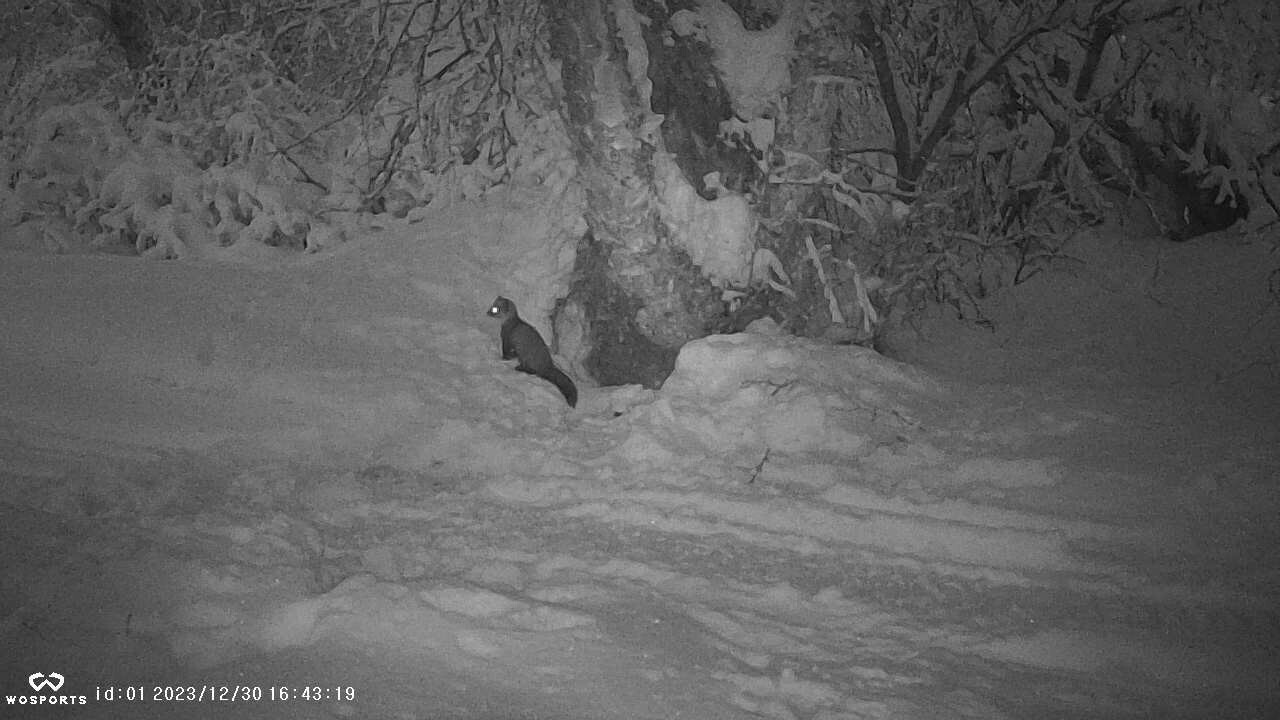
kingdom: Animalia
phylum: Chordata
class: Mammalia
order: Carnivora
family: Mustelidae
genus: Martes
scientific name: Martes americana
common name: American marten
